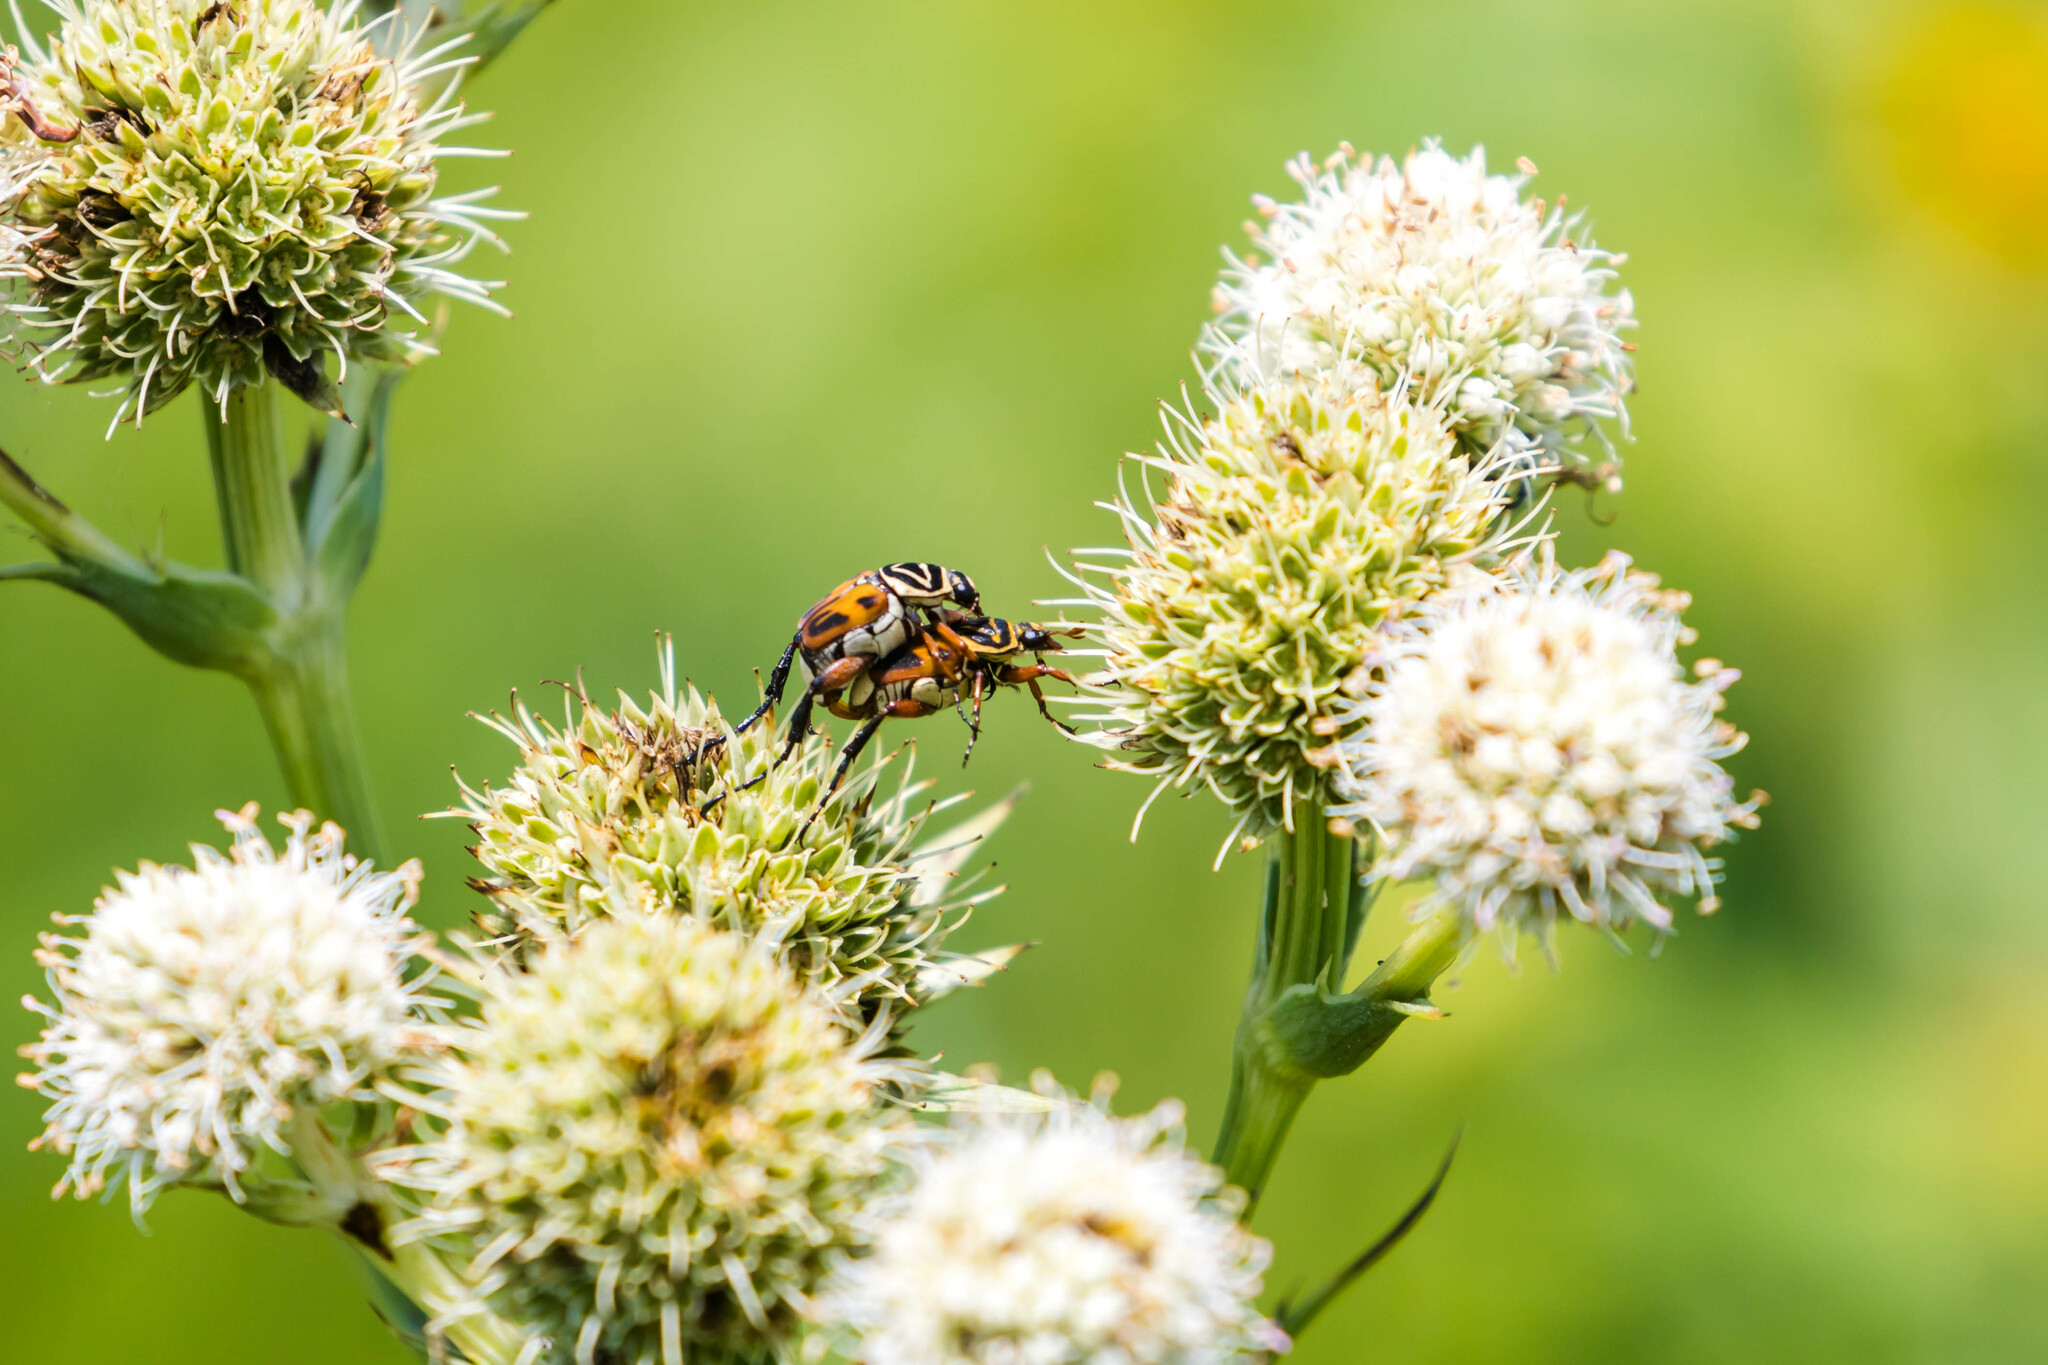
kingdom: Animalia
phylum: Arthropoda
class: Insecta
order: Coleoptera
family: Scarabaeidae
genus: Trigonopeltastes
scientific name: Trigonopeltastes delta
